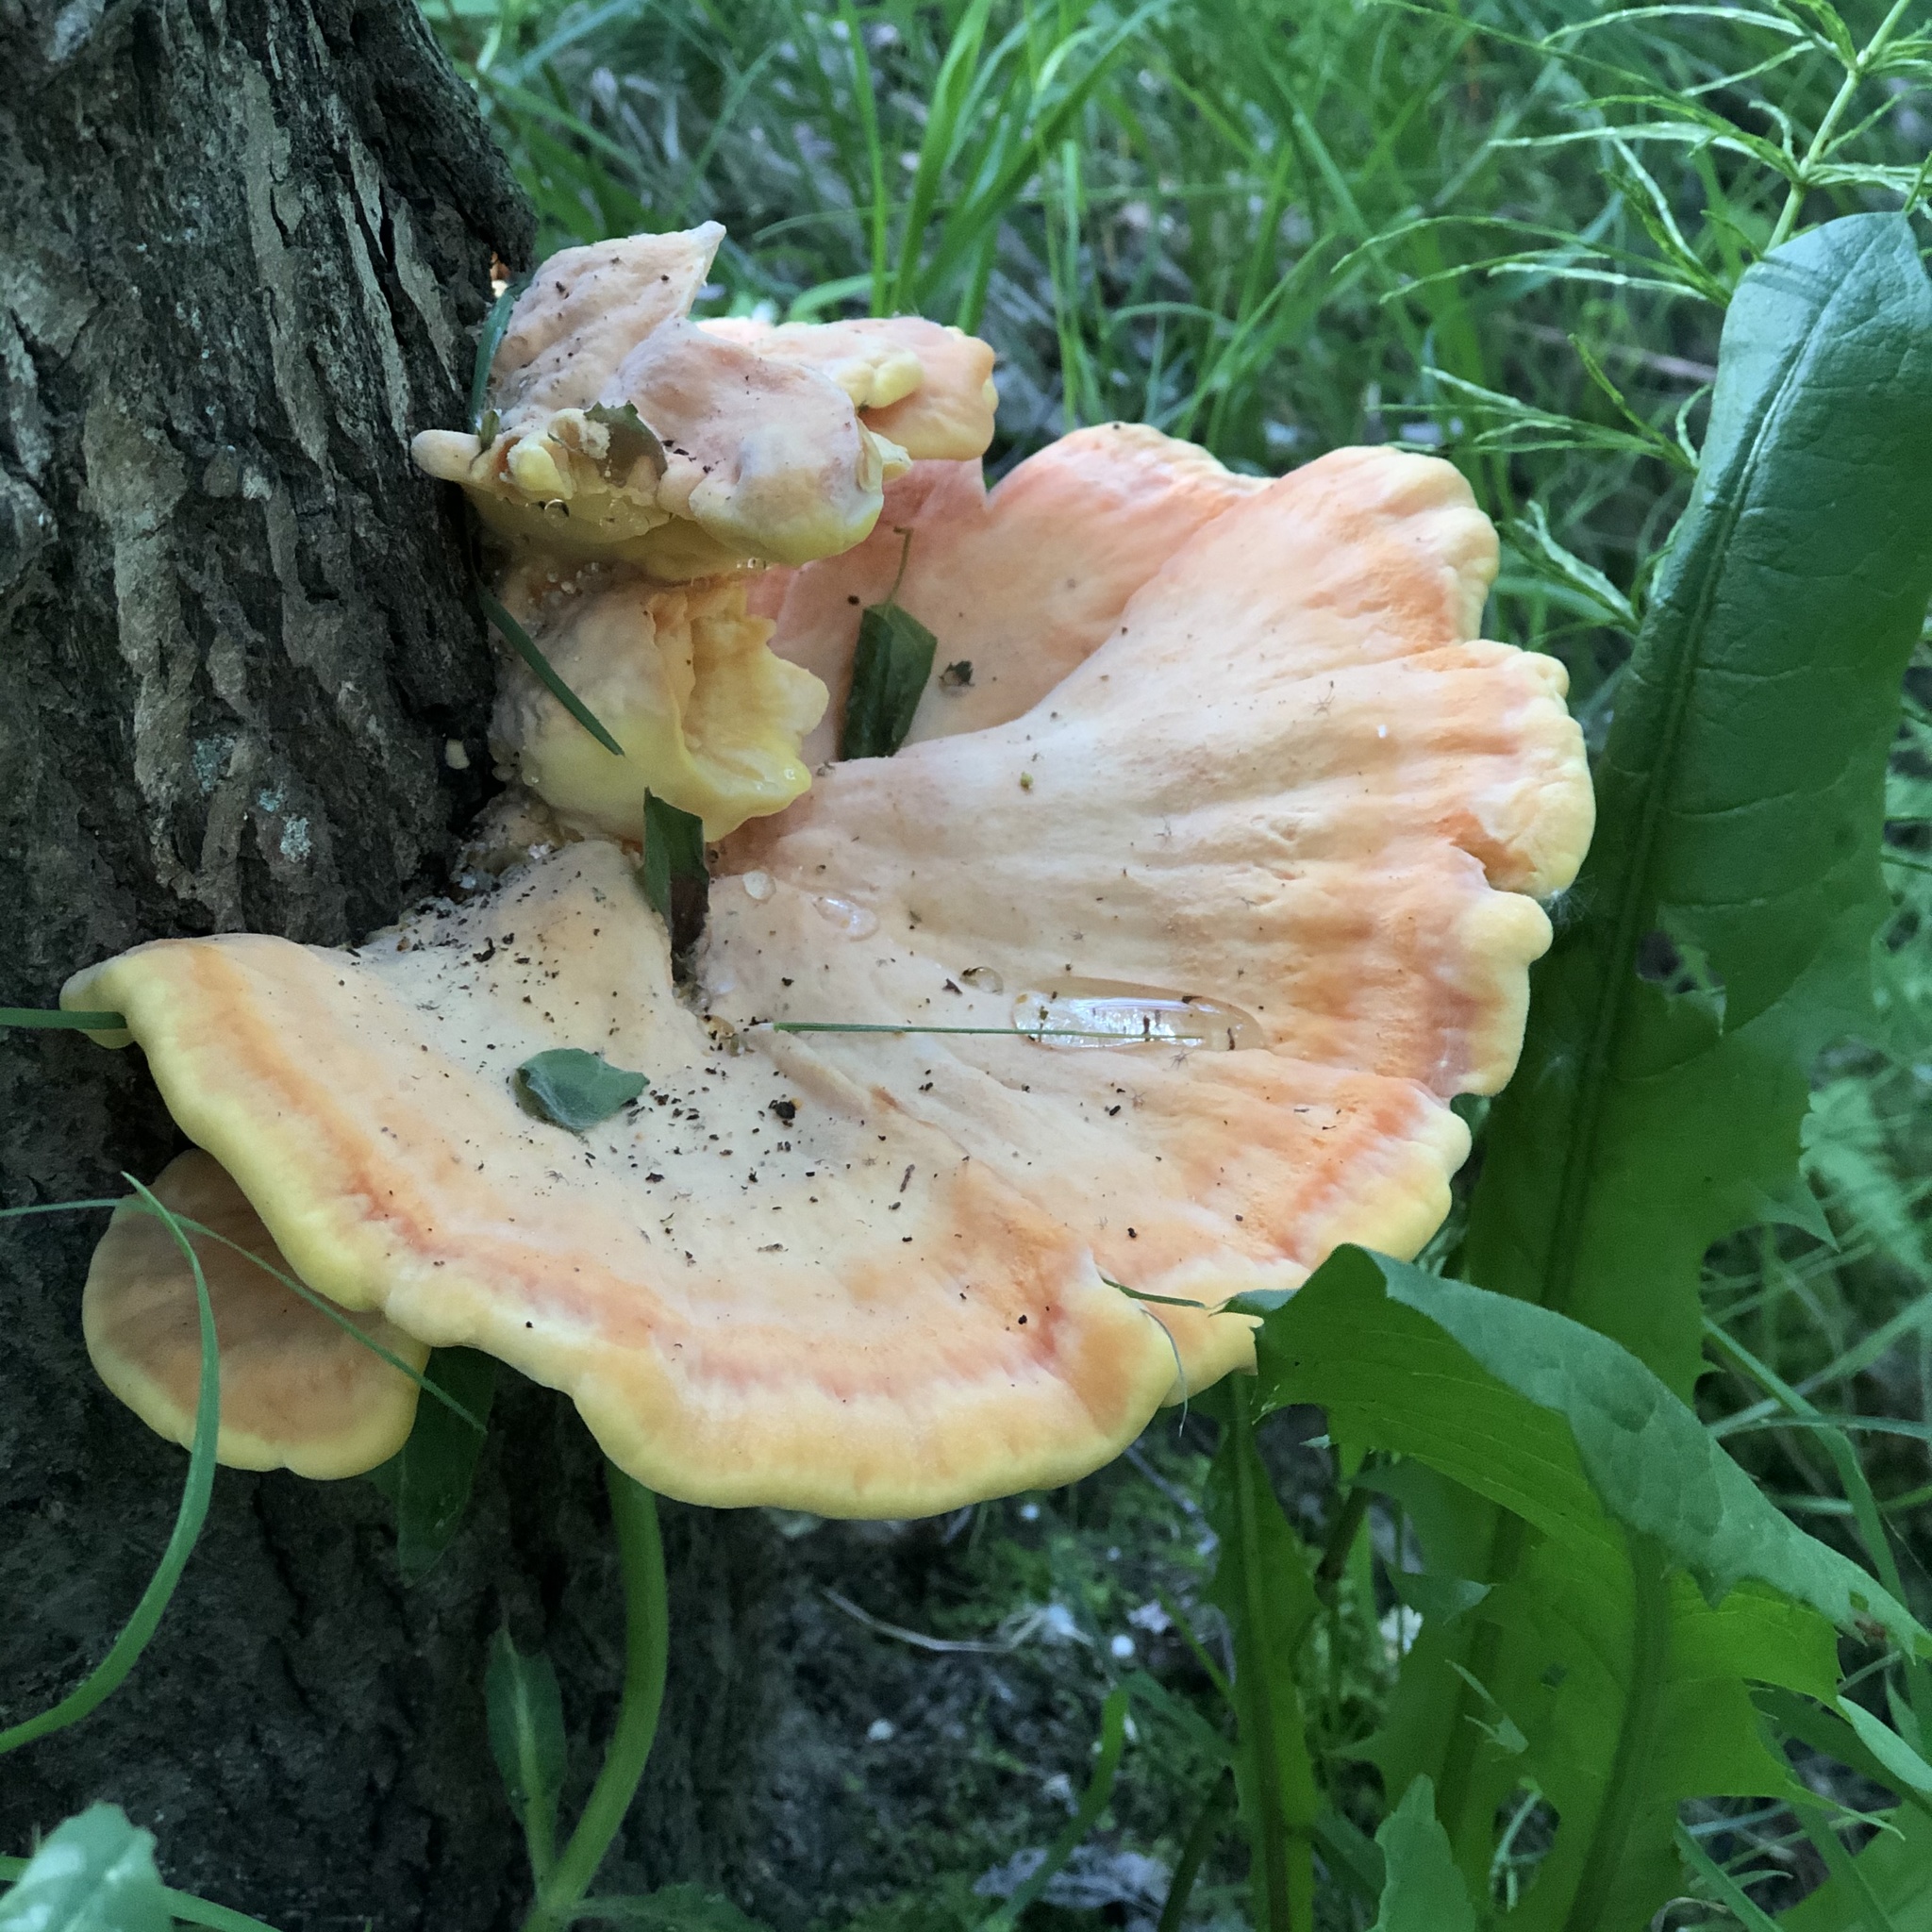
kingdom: Fungi
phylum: Basidiomycota
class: Agaricomycetes
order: Polyporales
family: Laetiporaceae
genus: Laetiporus
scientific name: Laetiporus sulphureus
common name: Chicken of the woods
